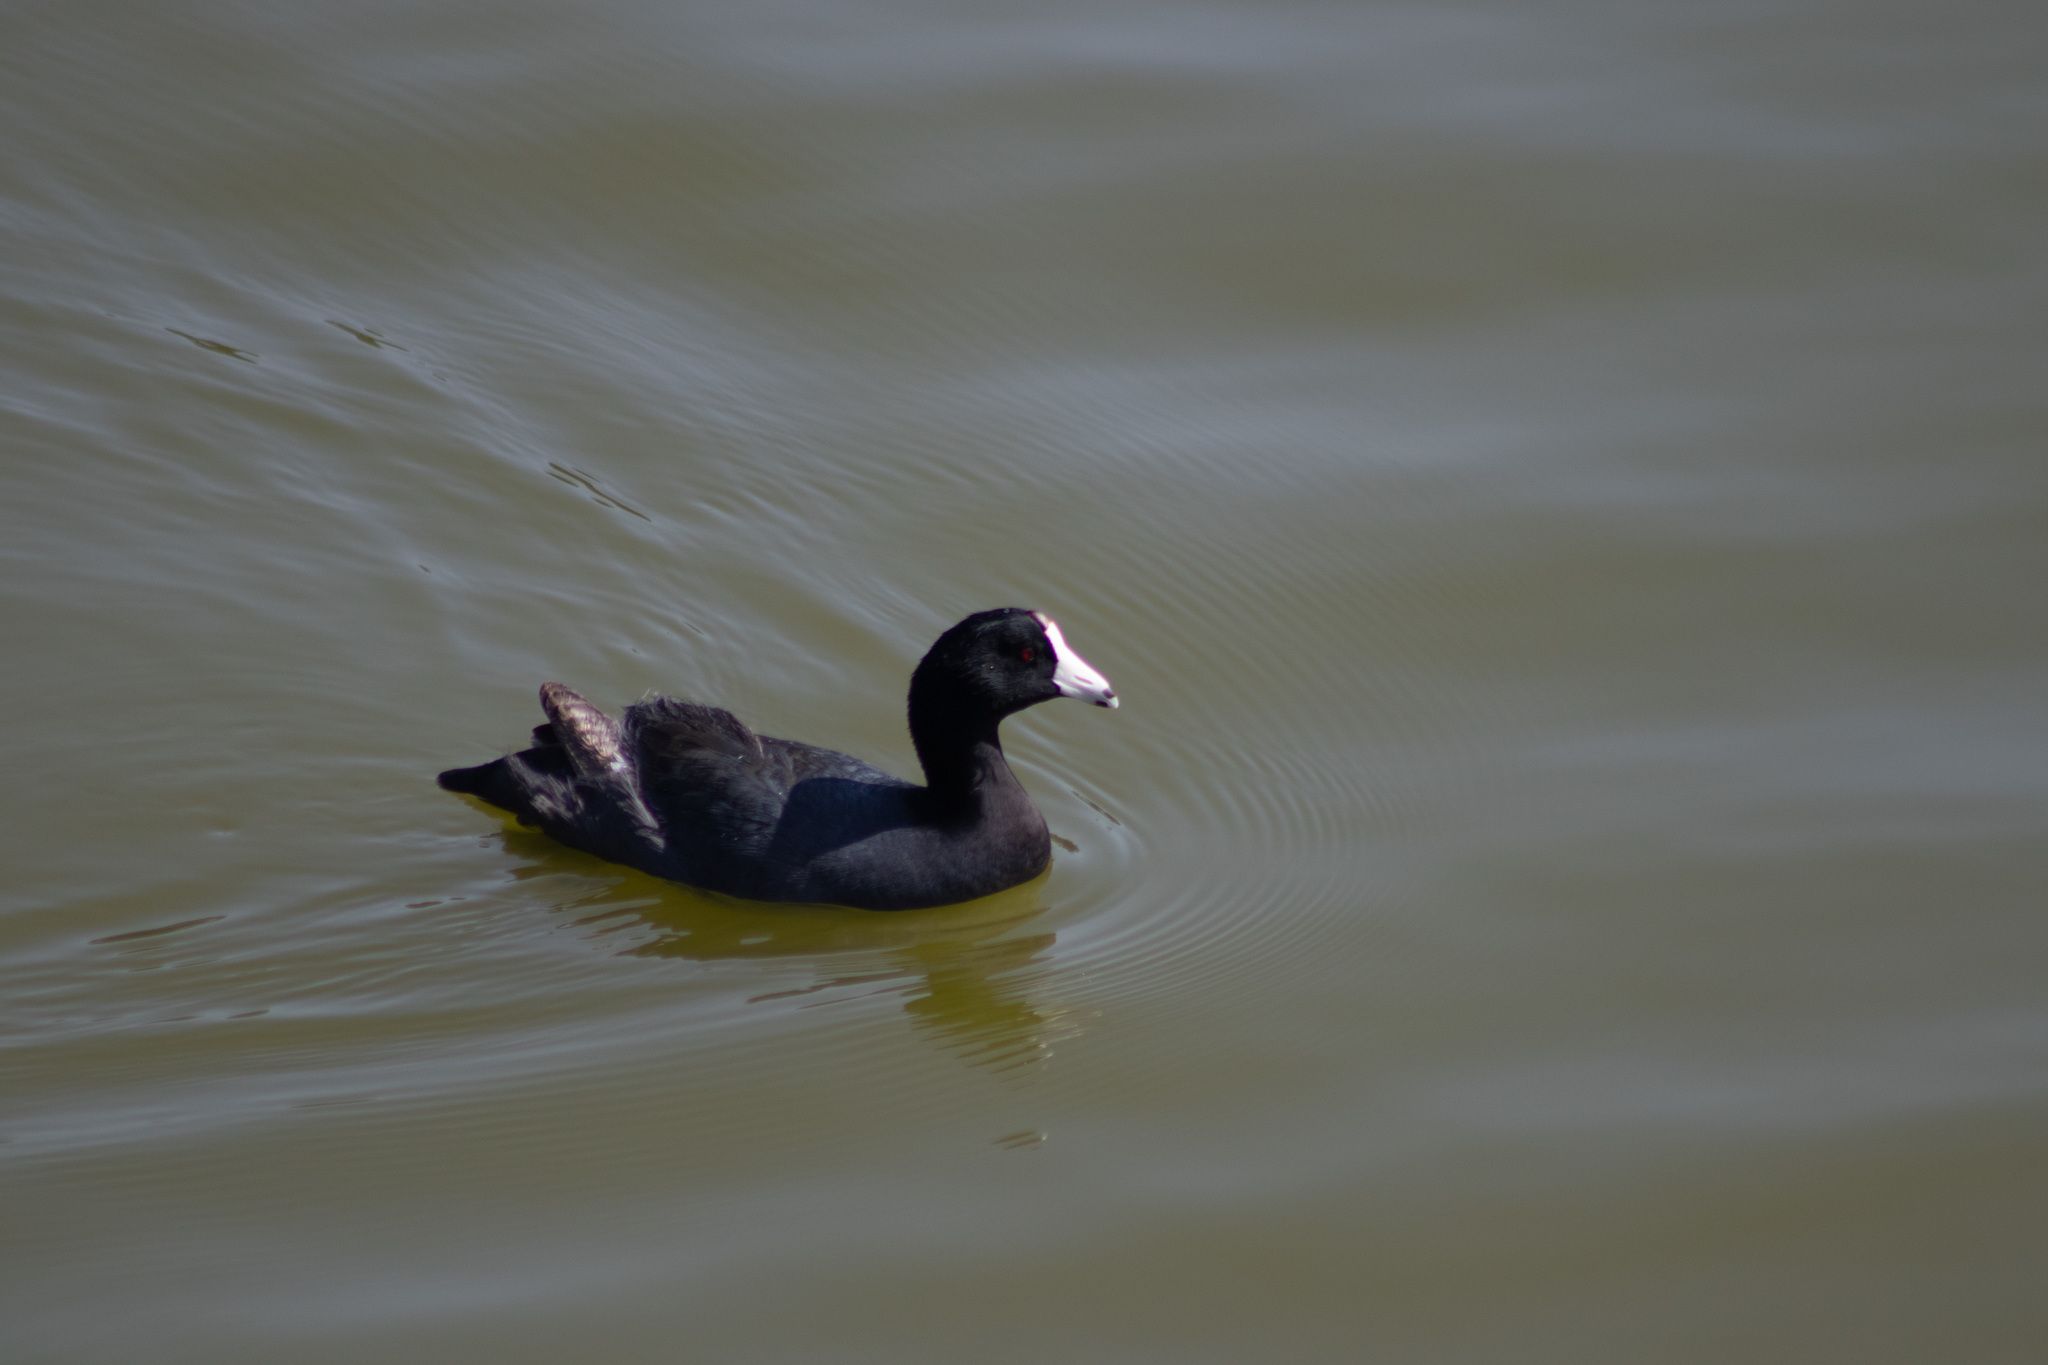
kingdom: Animalia
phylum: Chordata
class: Aves
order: Gruiformes
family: Rallidae
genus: Fulica
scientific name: Fulica americana
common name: American coot
